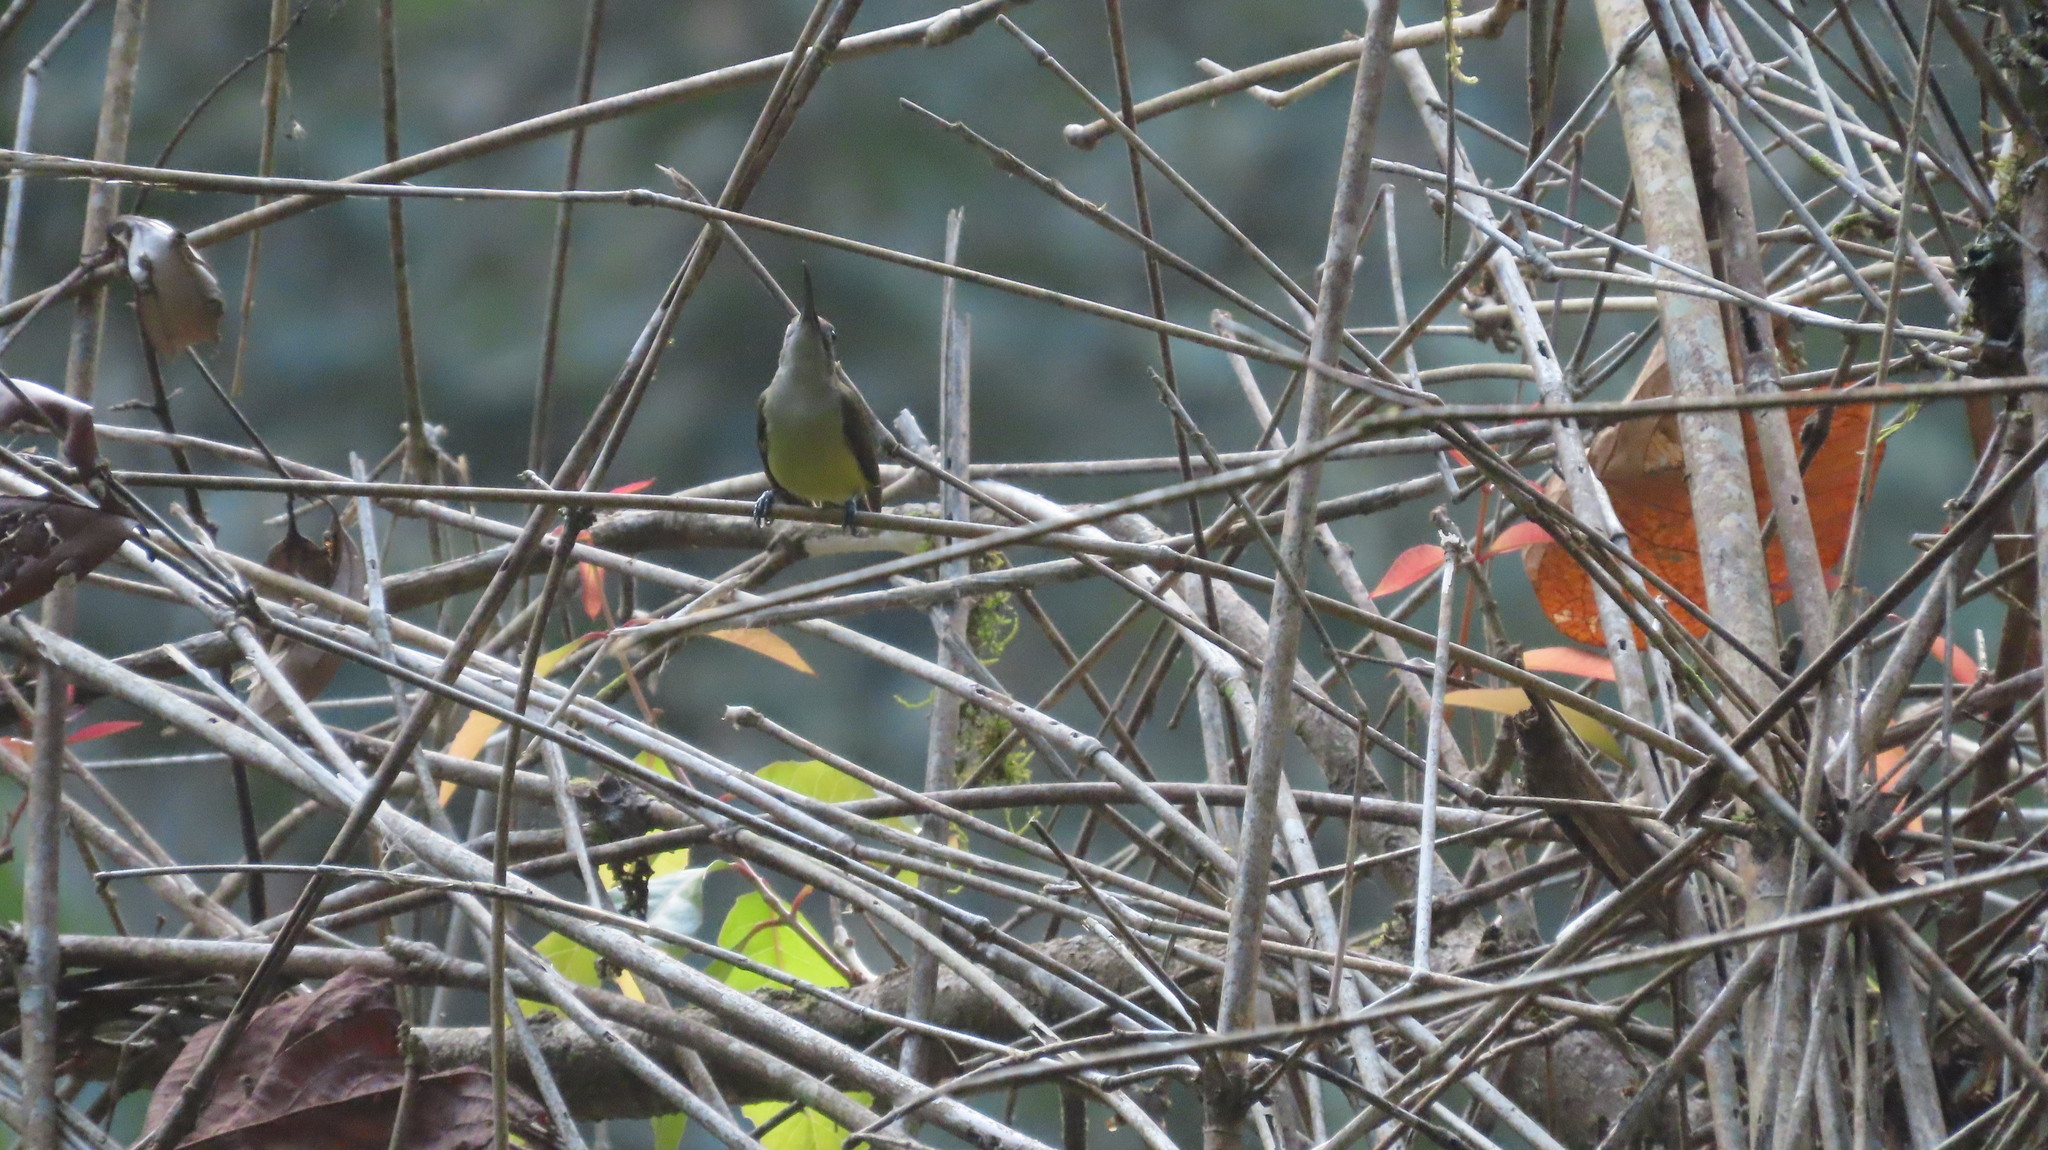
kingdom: Animalia
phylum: Chordata
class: Aves
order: Passeriformes
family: Nectariniidae
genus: Arachnothera
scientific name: Arachnothera longirostra
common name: Little spiderhunter
